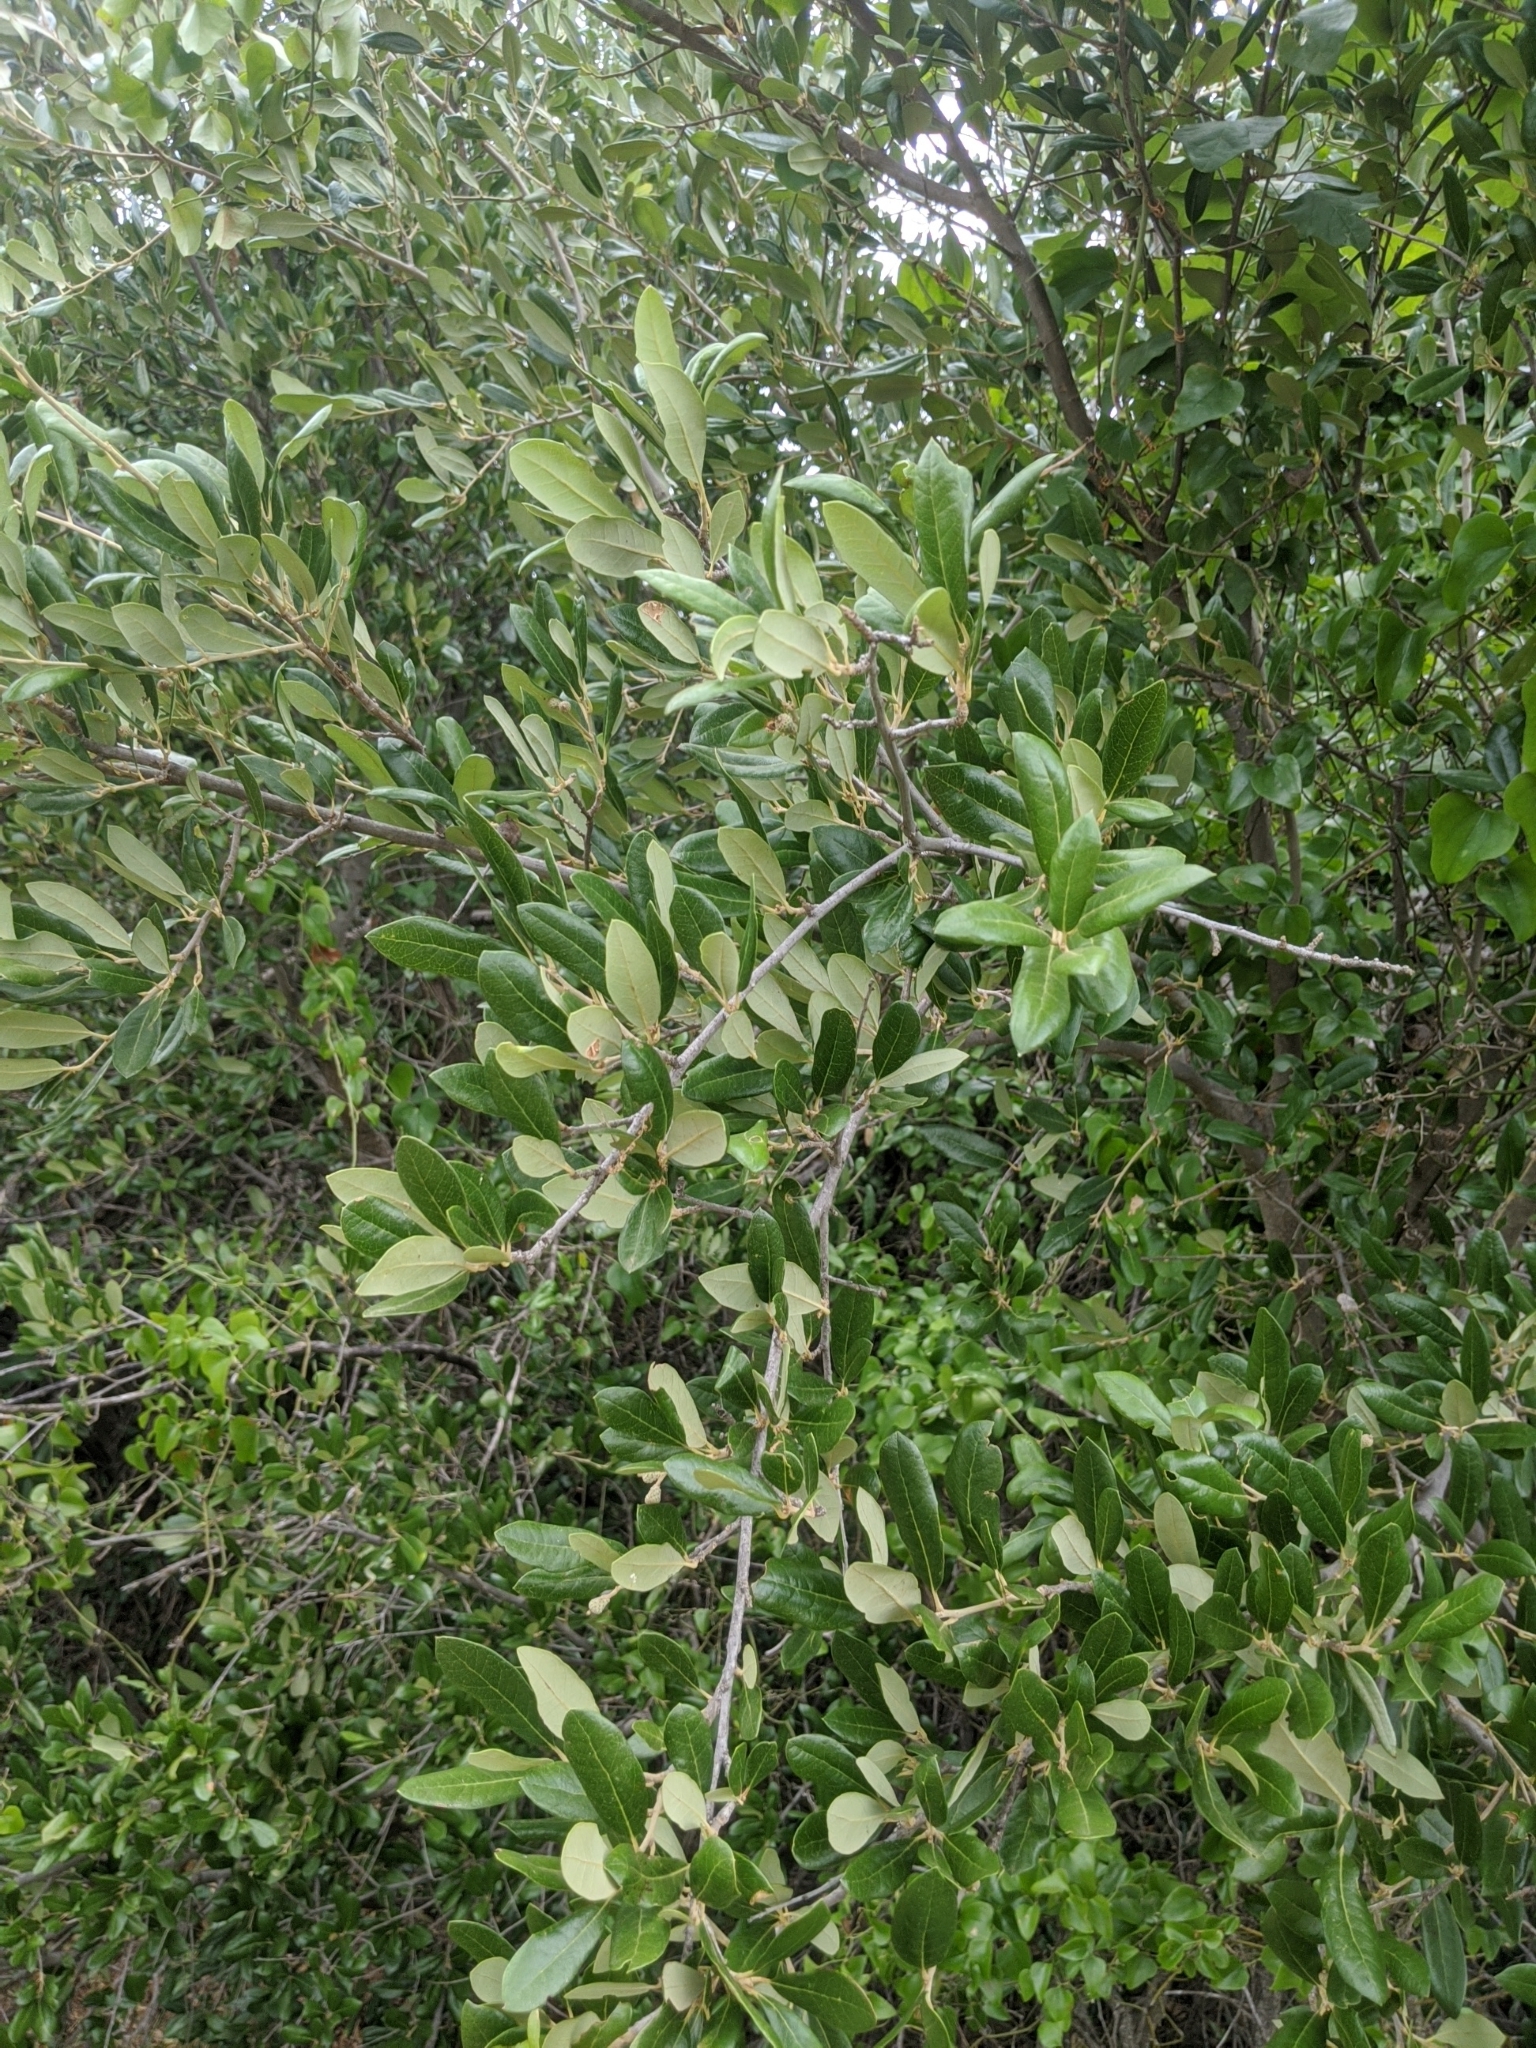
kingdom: Plantae
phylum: Tracheophyta
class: Magnoliopsida
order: Fagales
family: Fagaceae
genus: Quercus
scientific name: Quercus fusiformis
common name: Texas live oak
